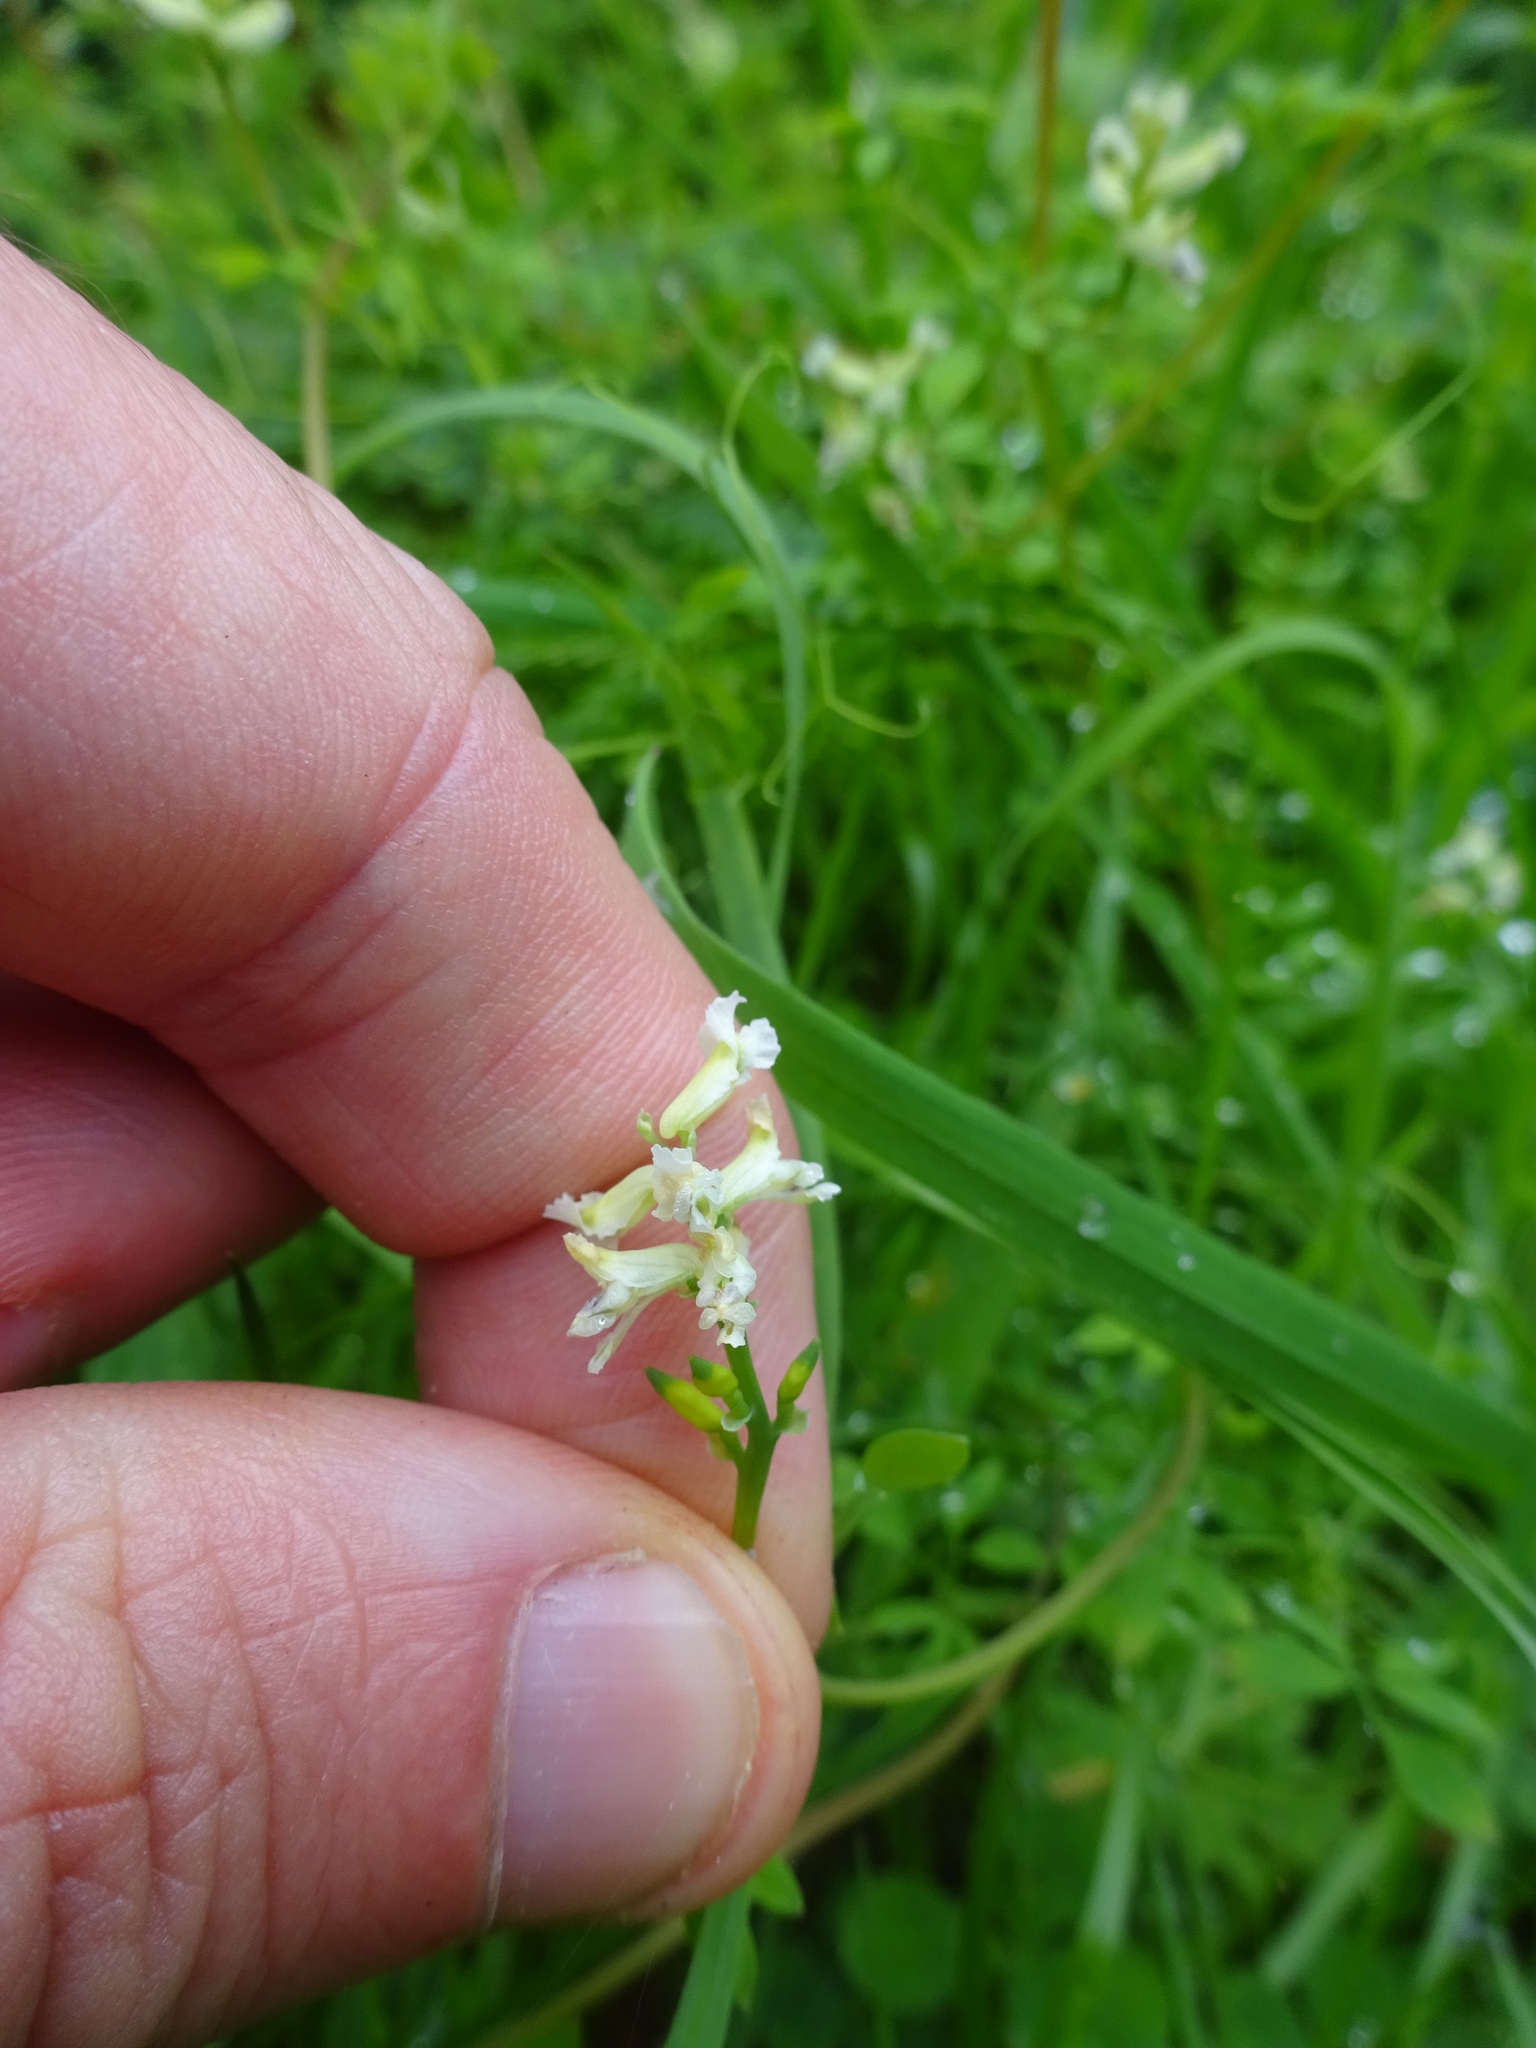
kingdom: Plantae
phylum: Tracheophyta
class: Magnoliopsida
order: Ranunculales
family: Papaveraceae
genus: Ceratocapnos
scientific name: Ceratocapnos claviculata
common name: Climbing corydalis
